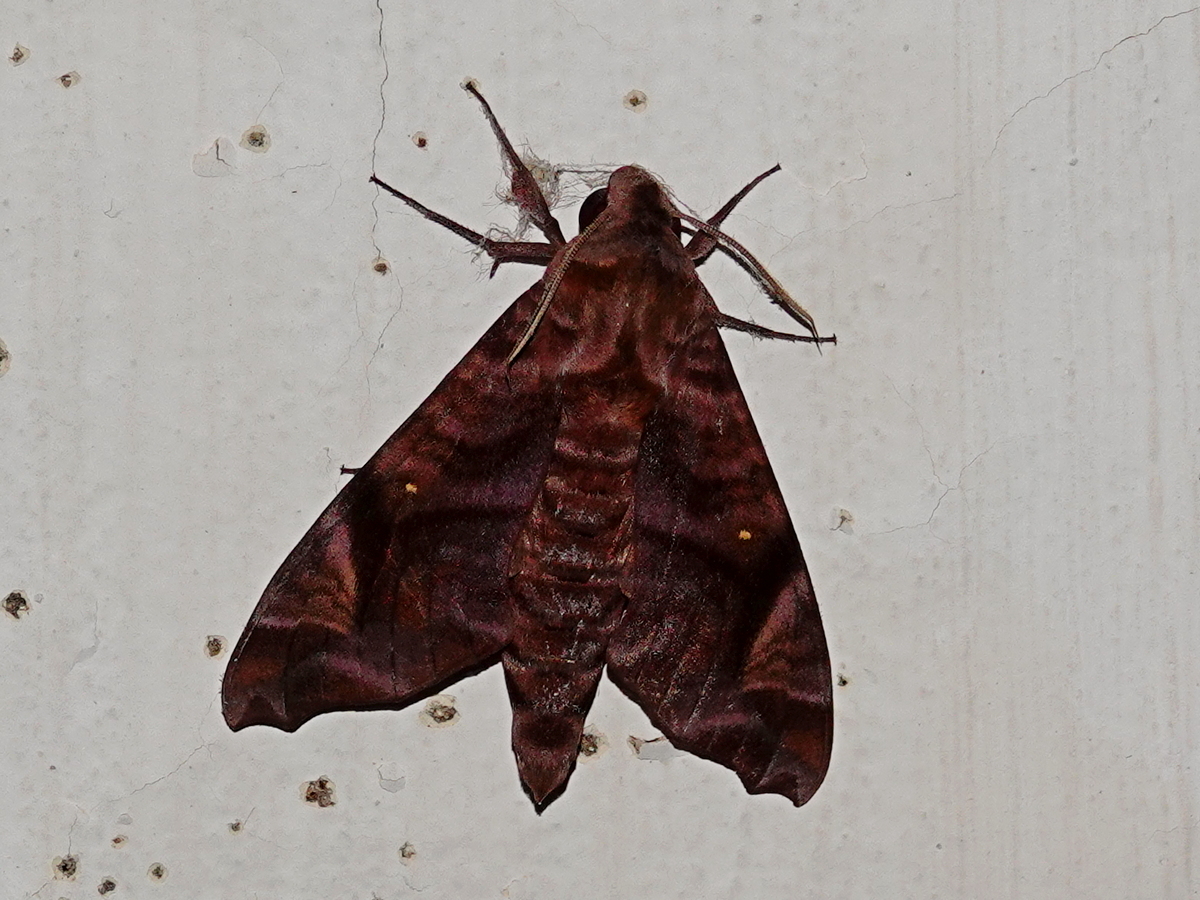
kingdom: Animalia
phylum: Arthropoda
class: Insecta
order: Lepidoptera
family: Sphingidae
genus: Acosmeryx
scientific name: Acosmeryx anceus
